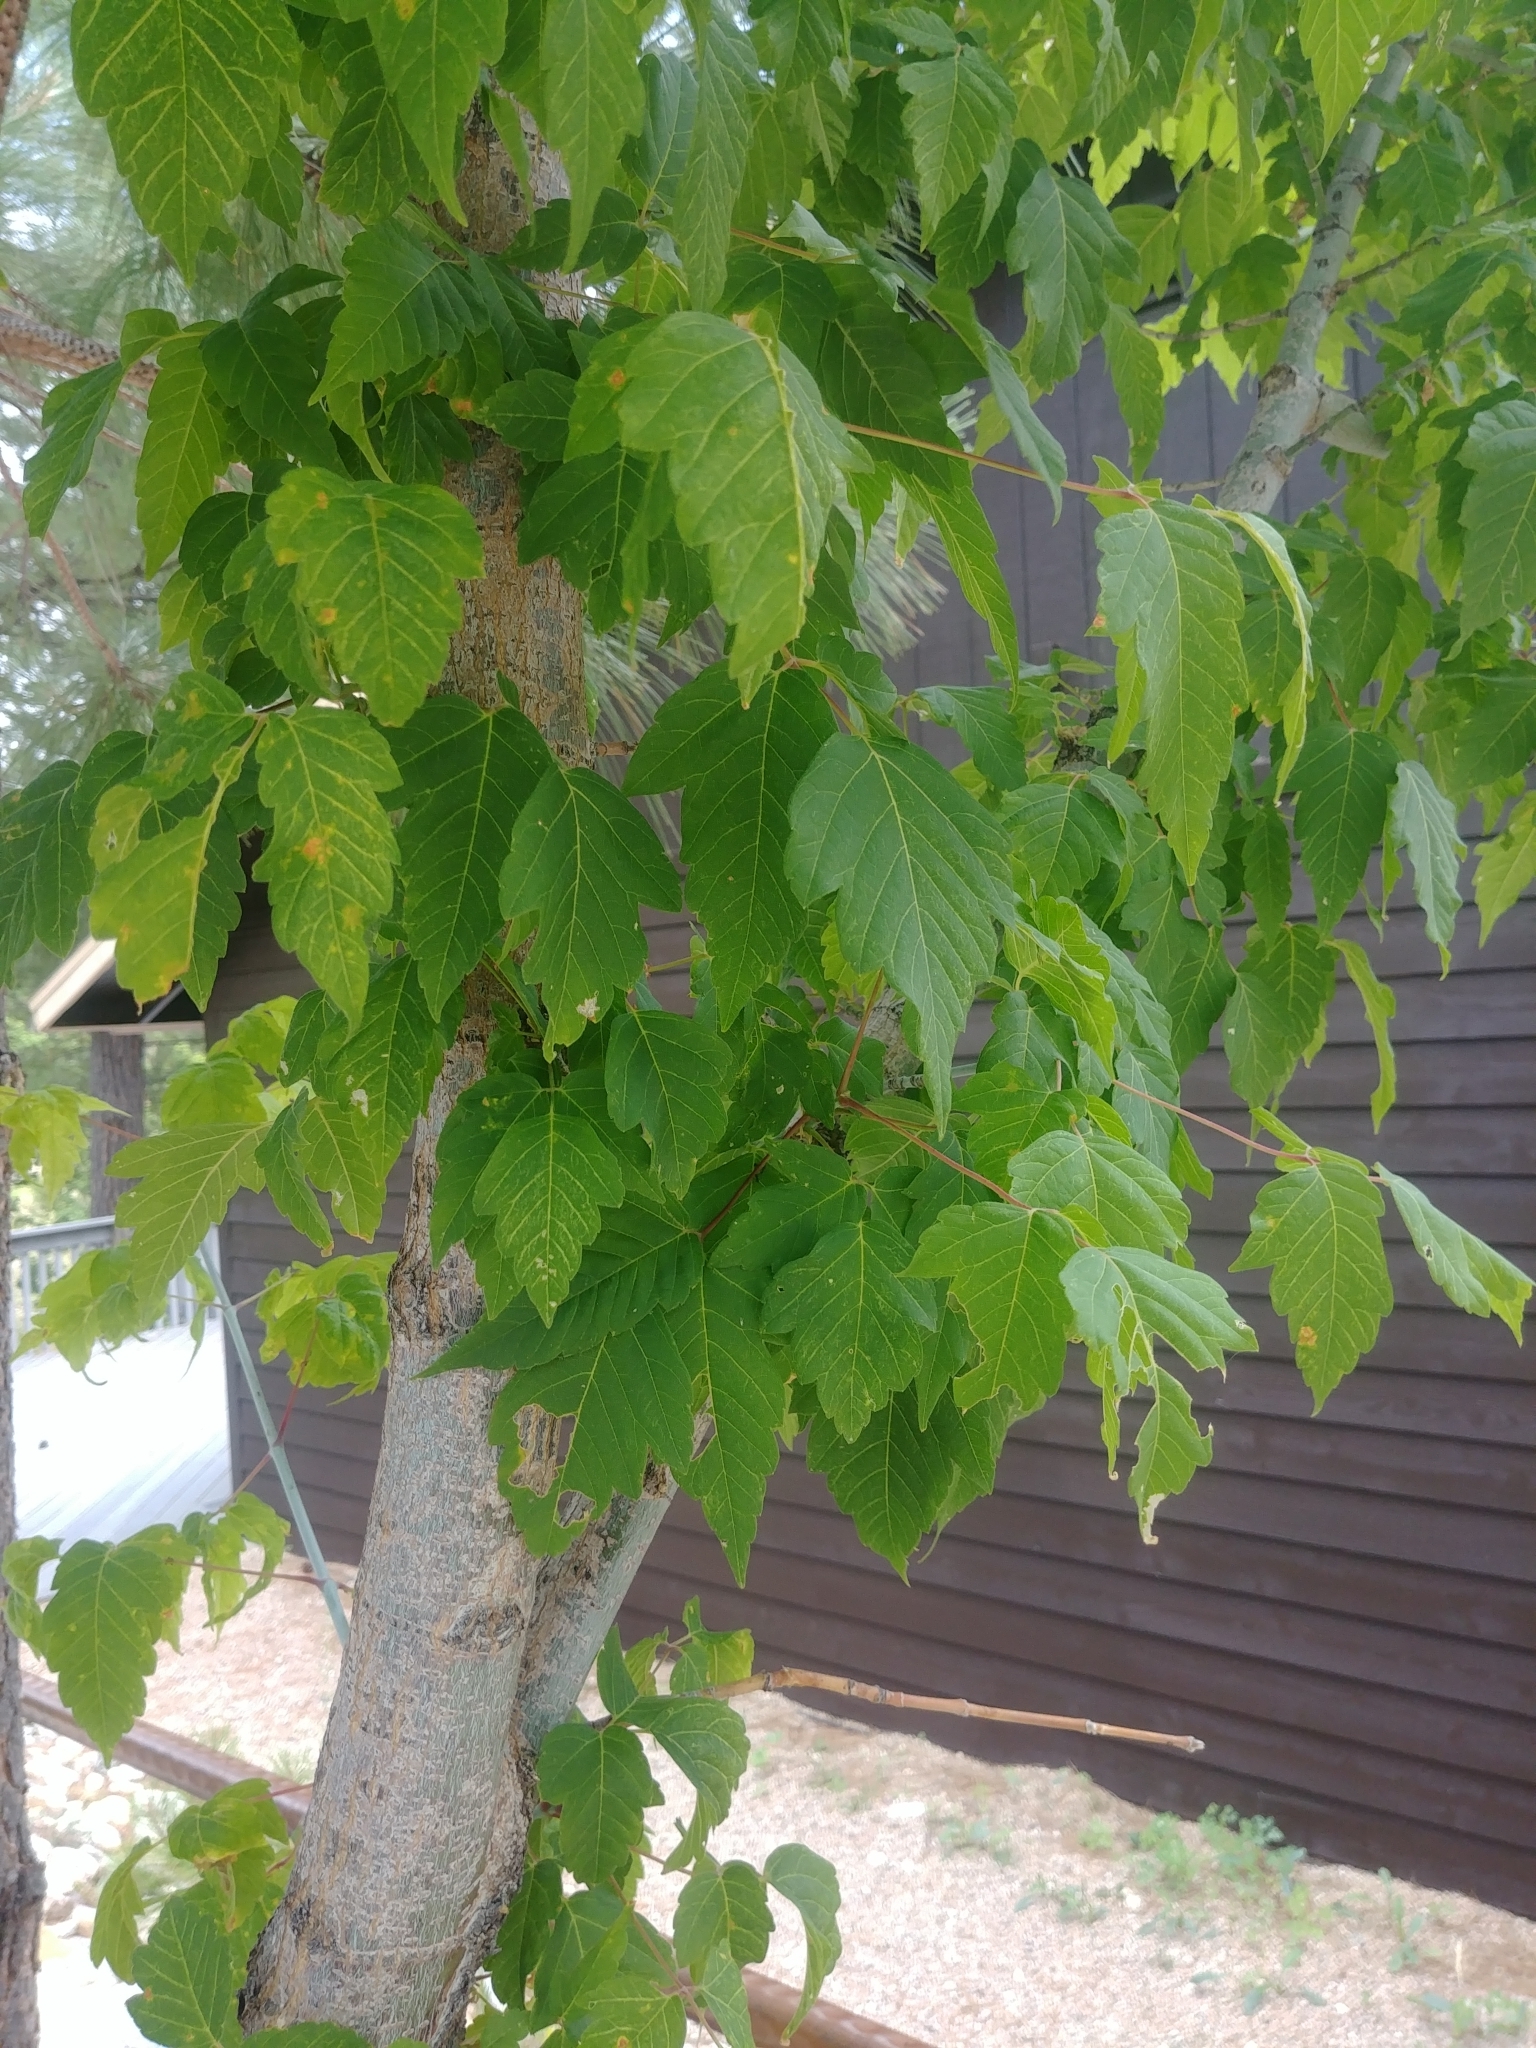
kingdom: Plantae
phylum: Tracheophyta
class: Magnoliopsida
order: Sapindales
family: Sapindaceae
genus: Acer
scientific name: Acer negundo
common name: Ashleaf maple
